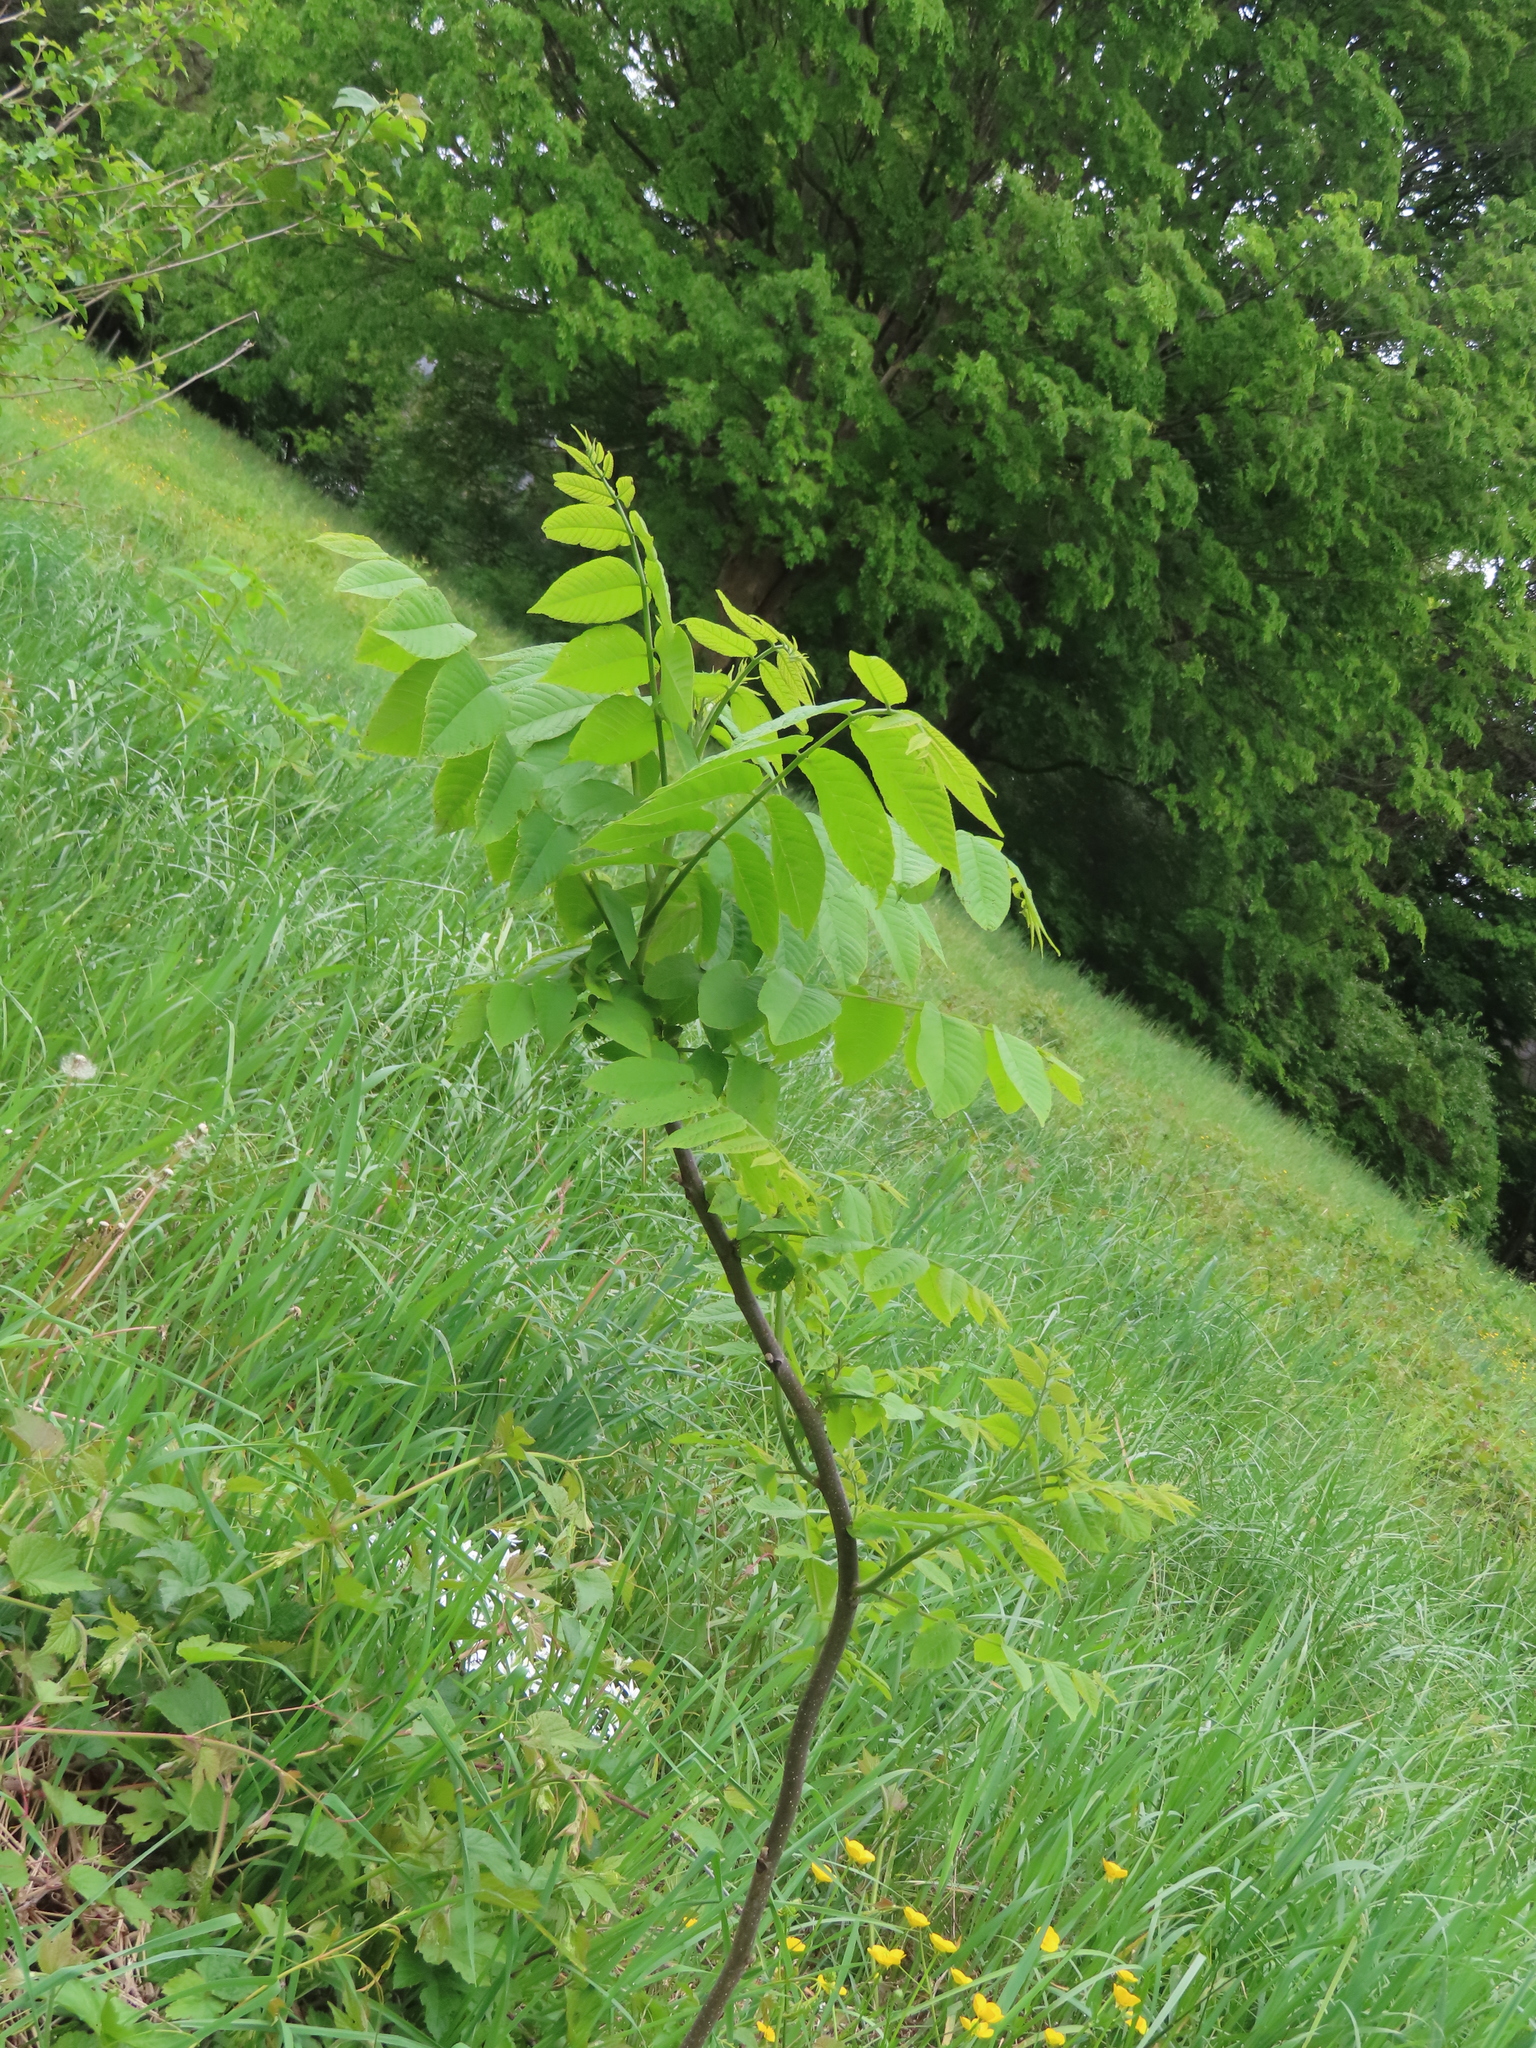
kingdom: Plantae
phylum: Tracheophyta
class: Magnoliopsida
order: Fagales
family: Juglandaceae
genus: Juglans
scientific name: Juglans nigra
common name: Black walnut
